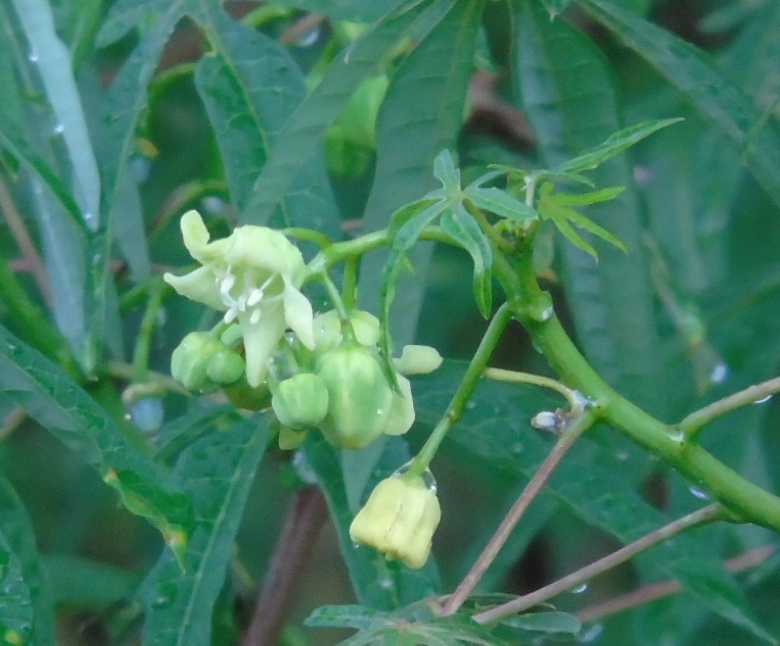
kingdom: Plantae
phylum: Tracheophyta
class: Magnoliopsida
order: Malpighiales
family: Euphorbiaceae
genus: Manihot
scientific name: Manihot angustiloba
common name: Desert mountain manihot
